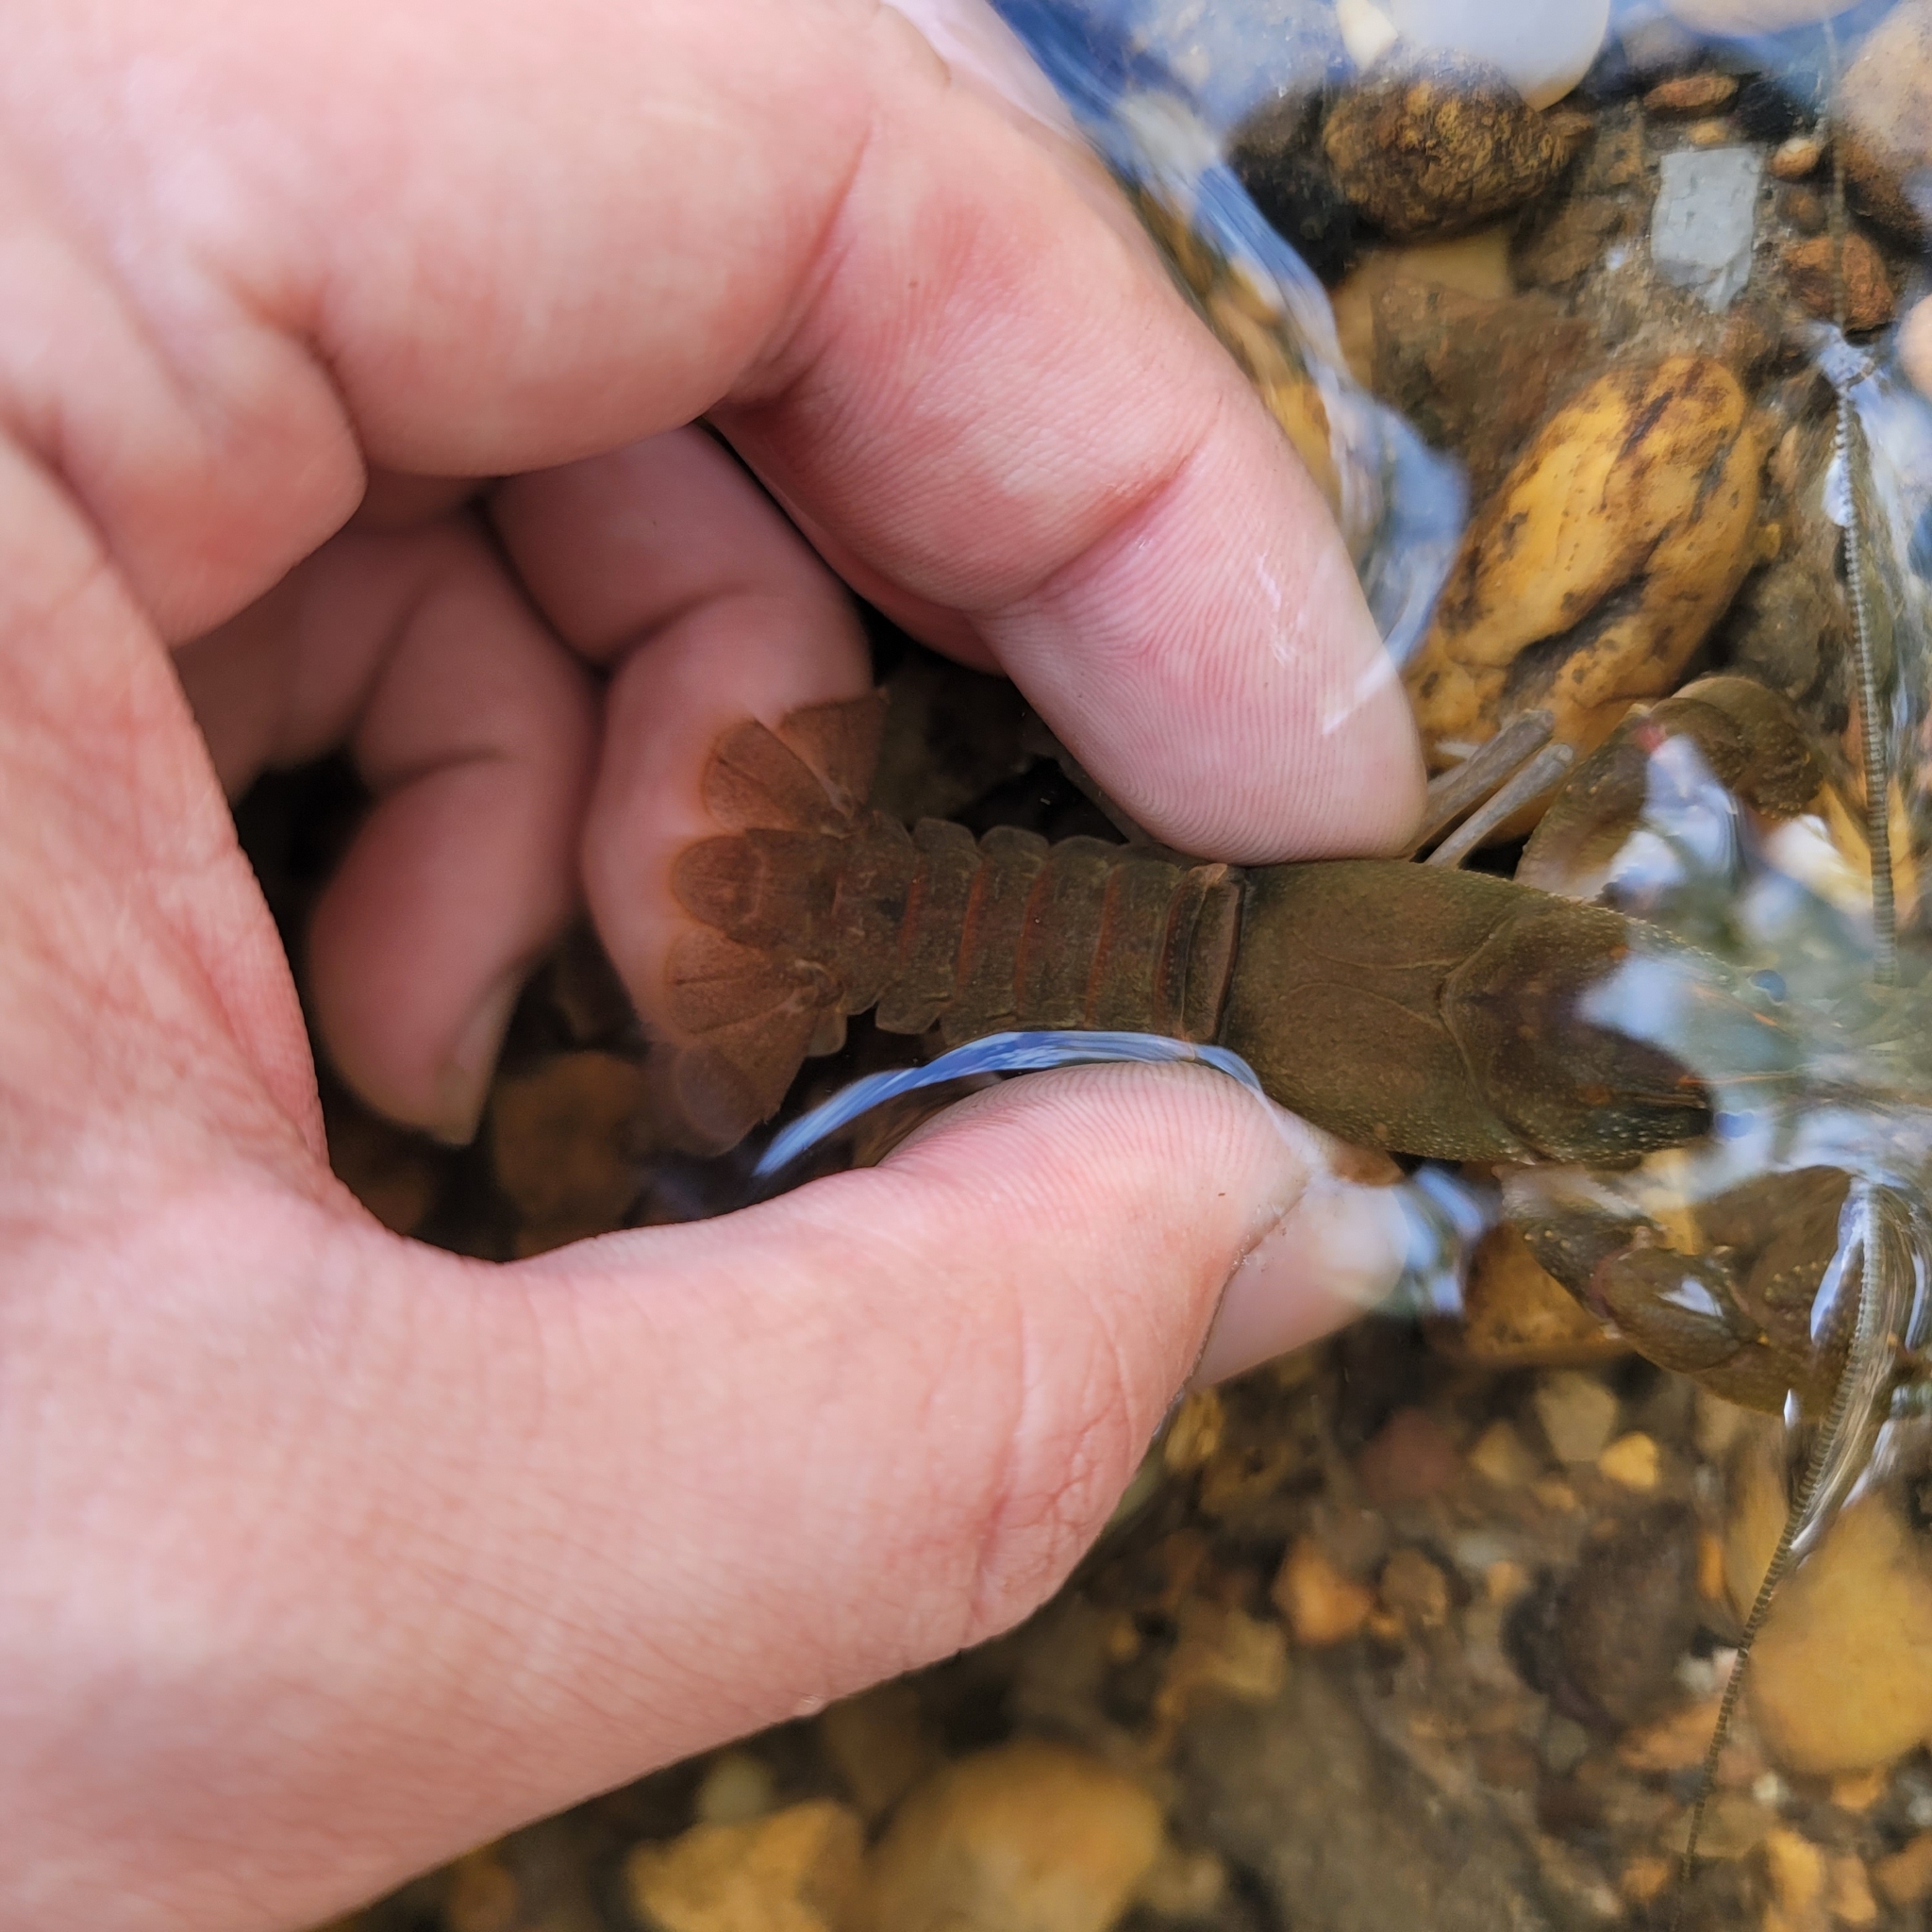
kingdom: Animalia
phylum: Arthropoda
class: Malacostraca
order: Decapoda
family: Cambaridae
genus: Cambarus
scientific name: Cambarus obstipus
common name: Sloped crayfish
